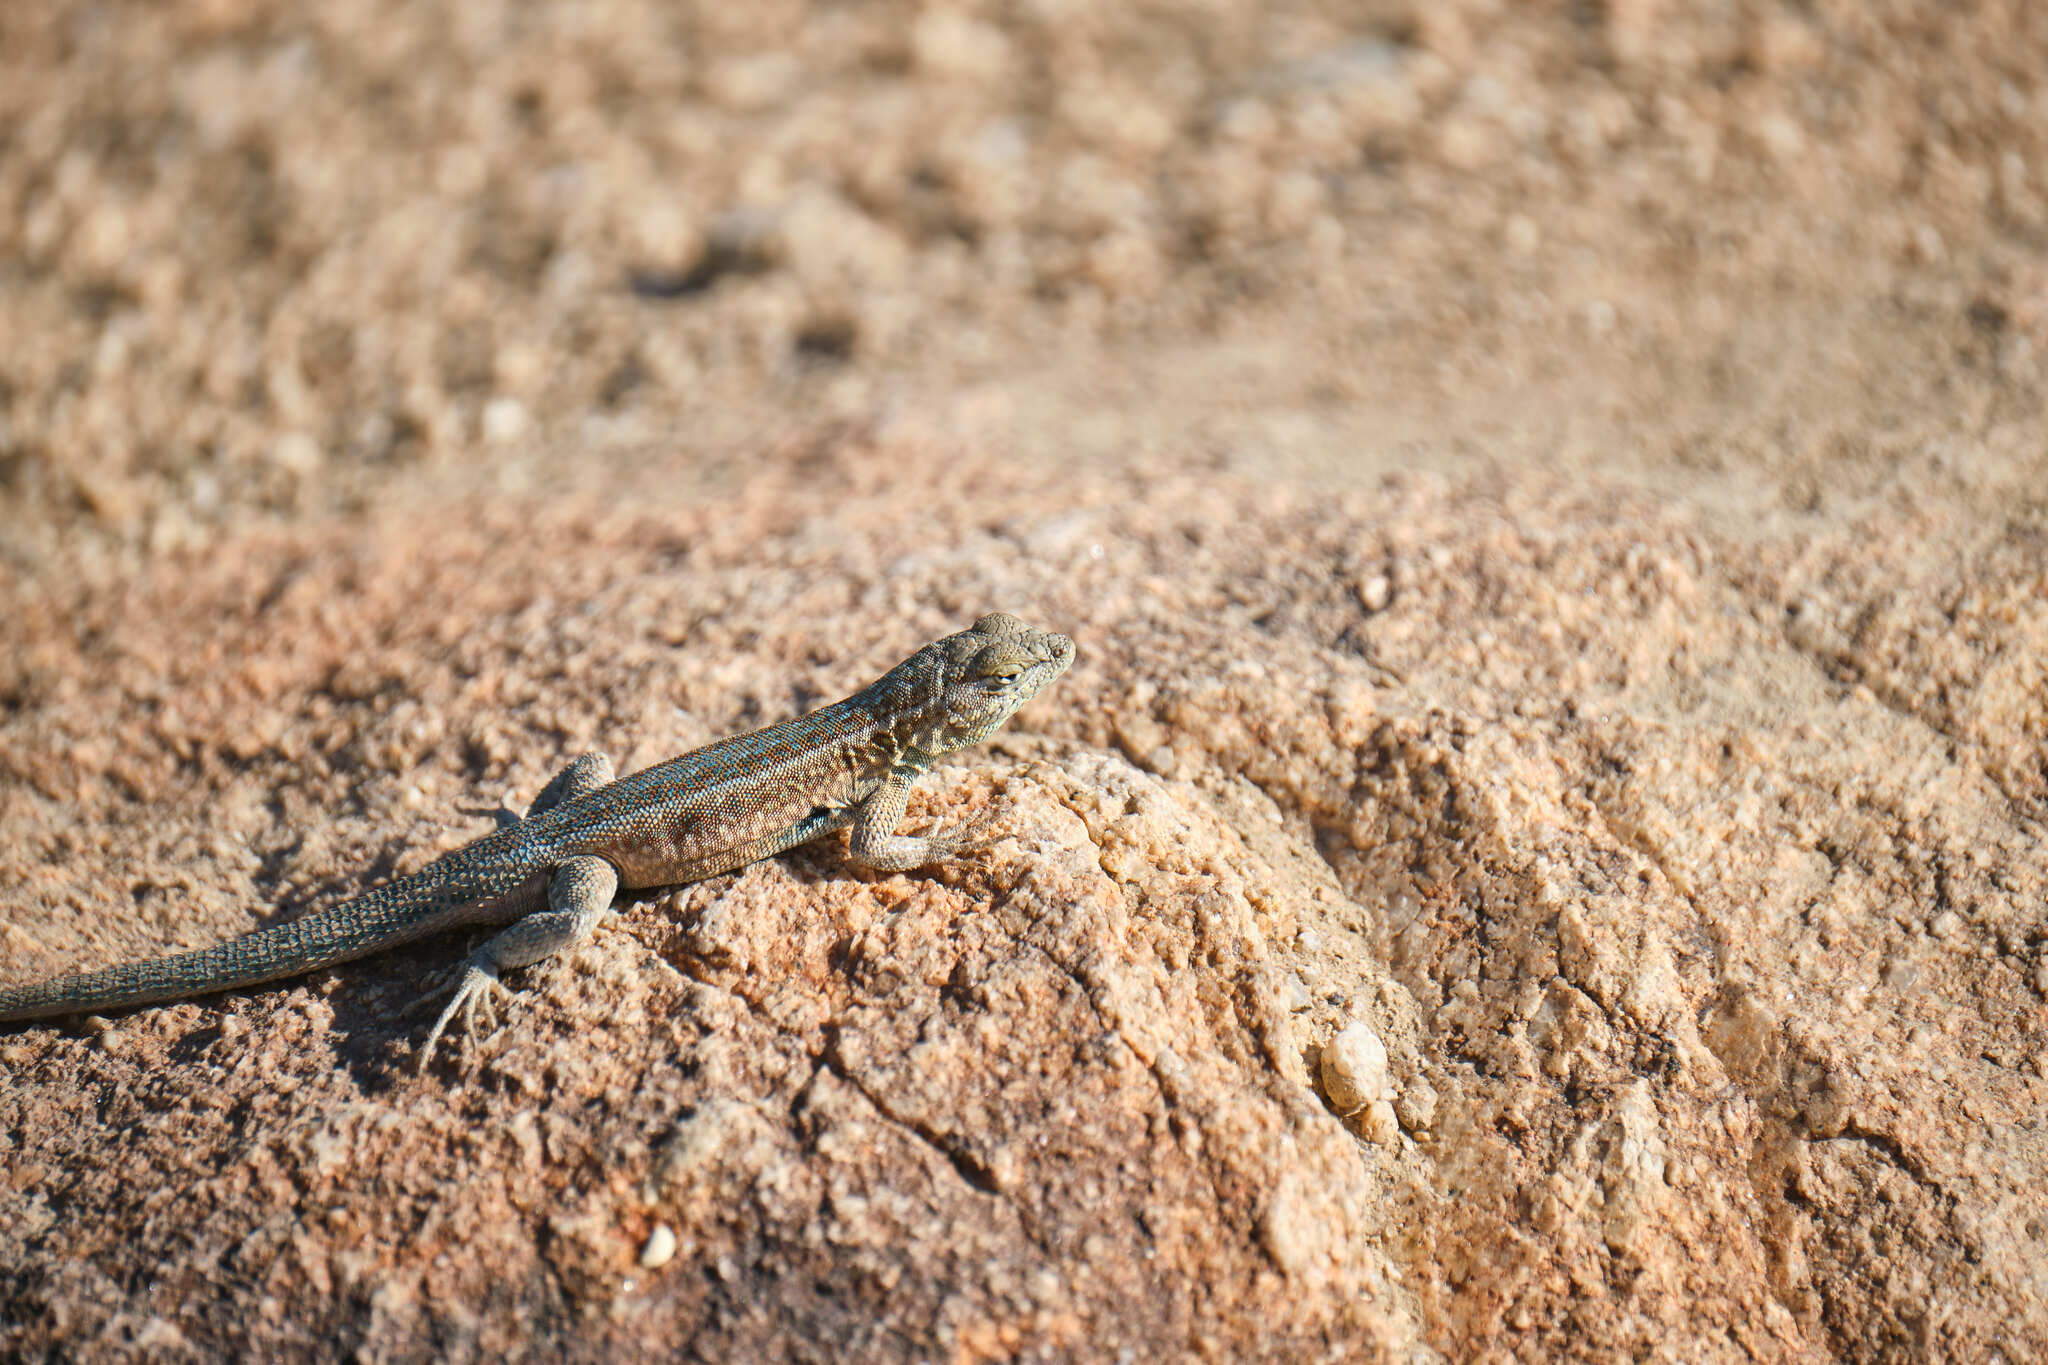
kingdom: Animalia
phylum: Chordata
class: Squamata
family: Phrynosomatidae
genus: Uta
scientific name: Uta stansburiana
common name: Side-blotched lizard
